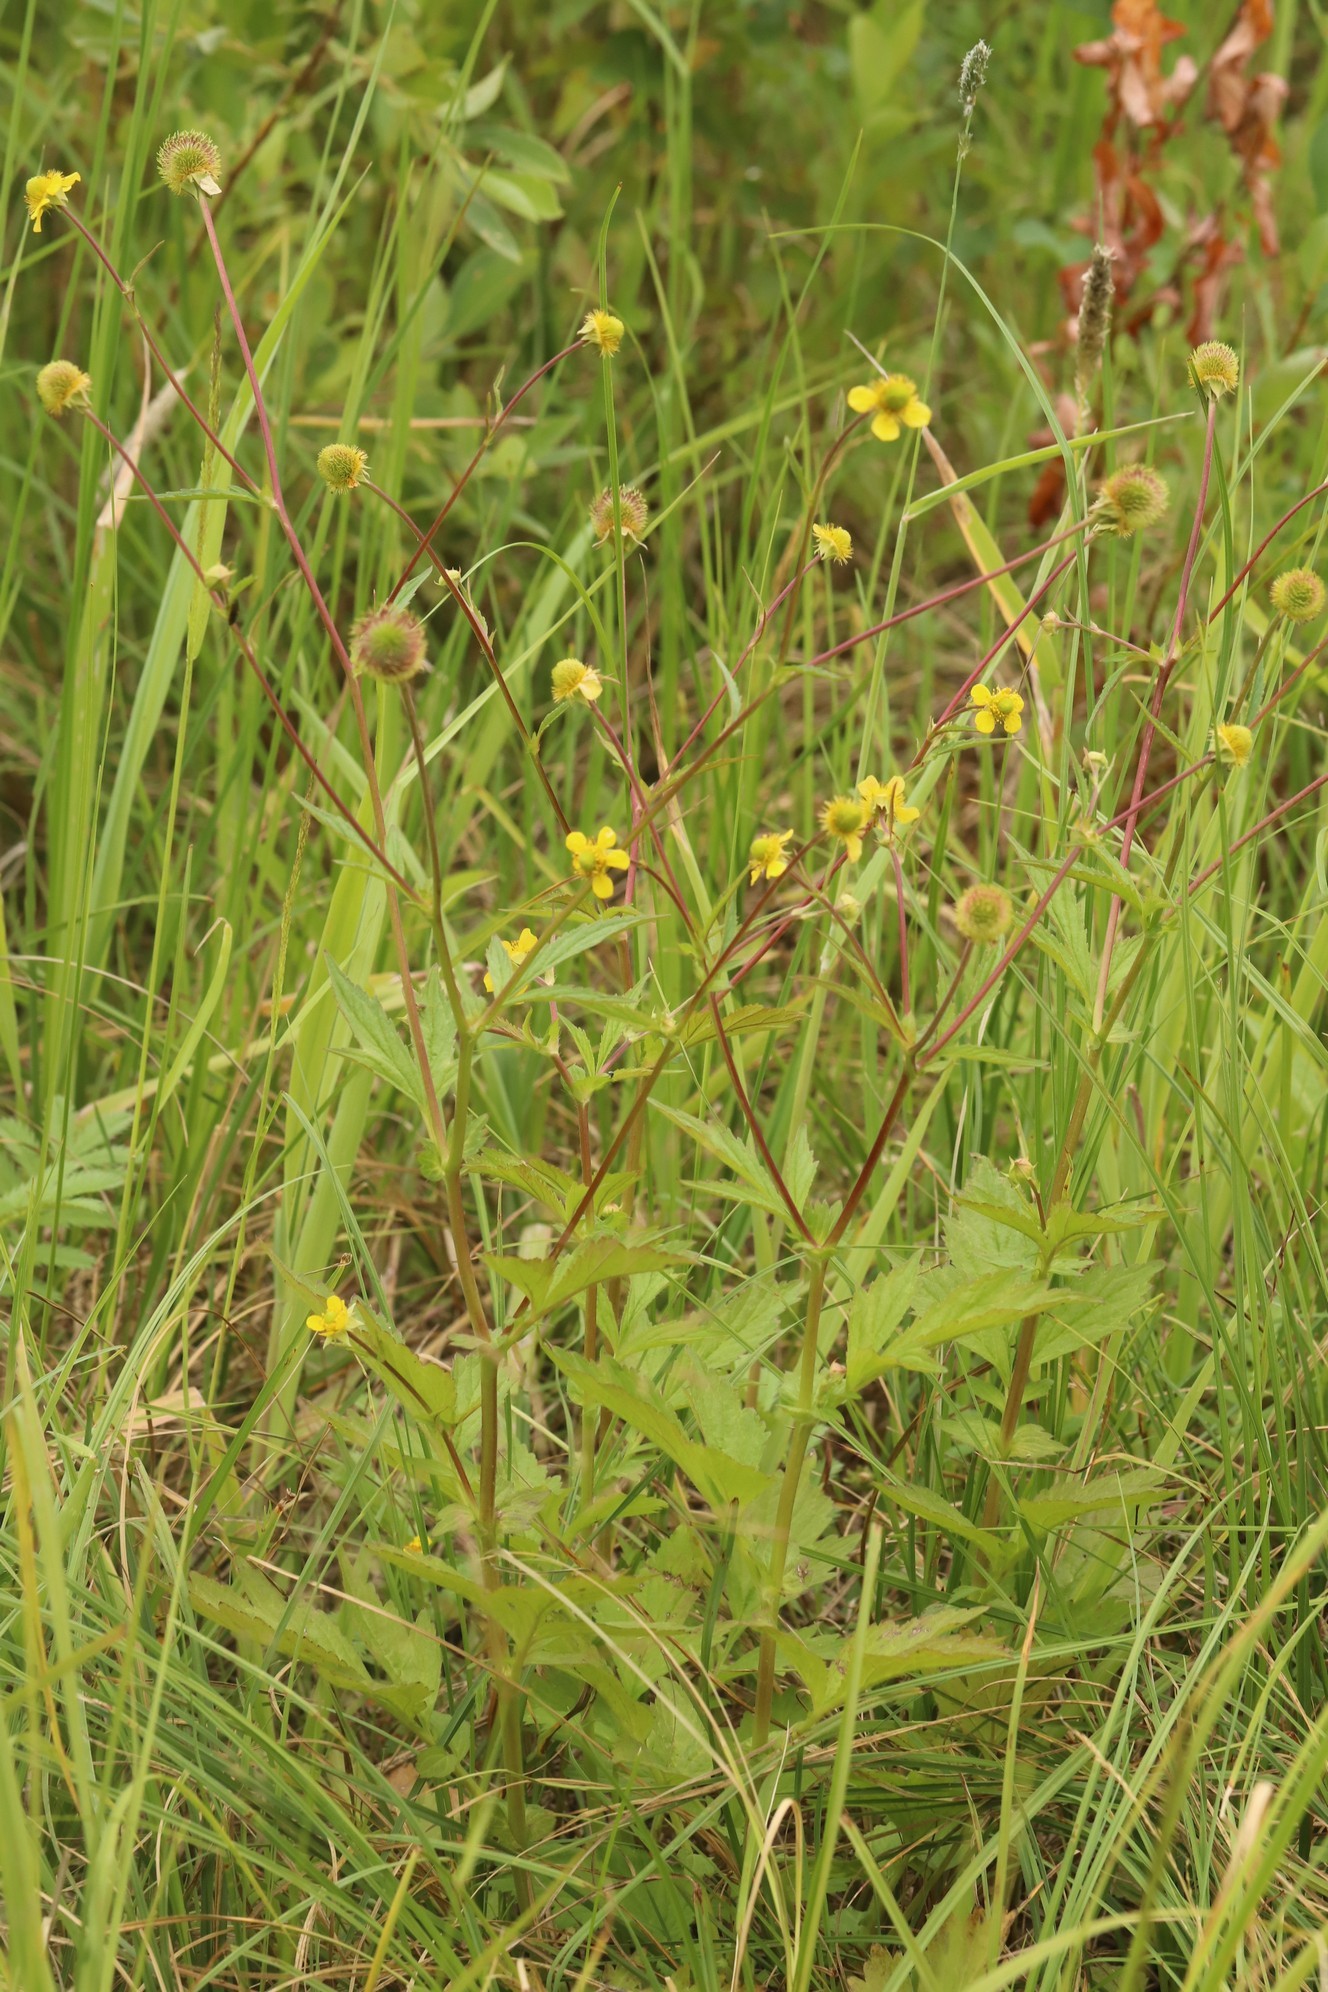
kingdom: Plantae
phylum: Tracheophyta
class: Magnoliopsida
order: Rosales
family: Rosaceae
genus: Geum
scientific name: Geum aleppicum
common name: Yellow avens
